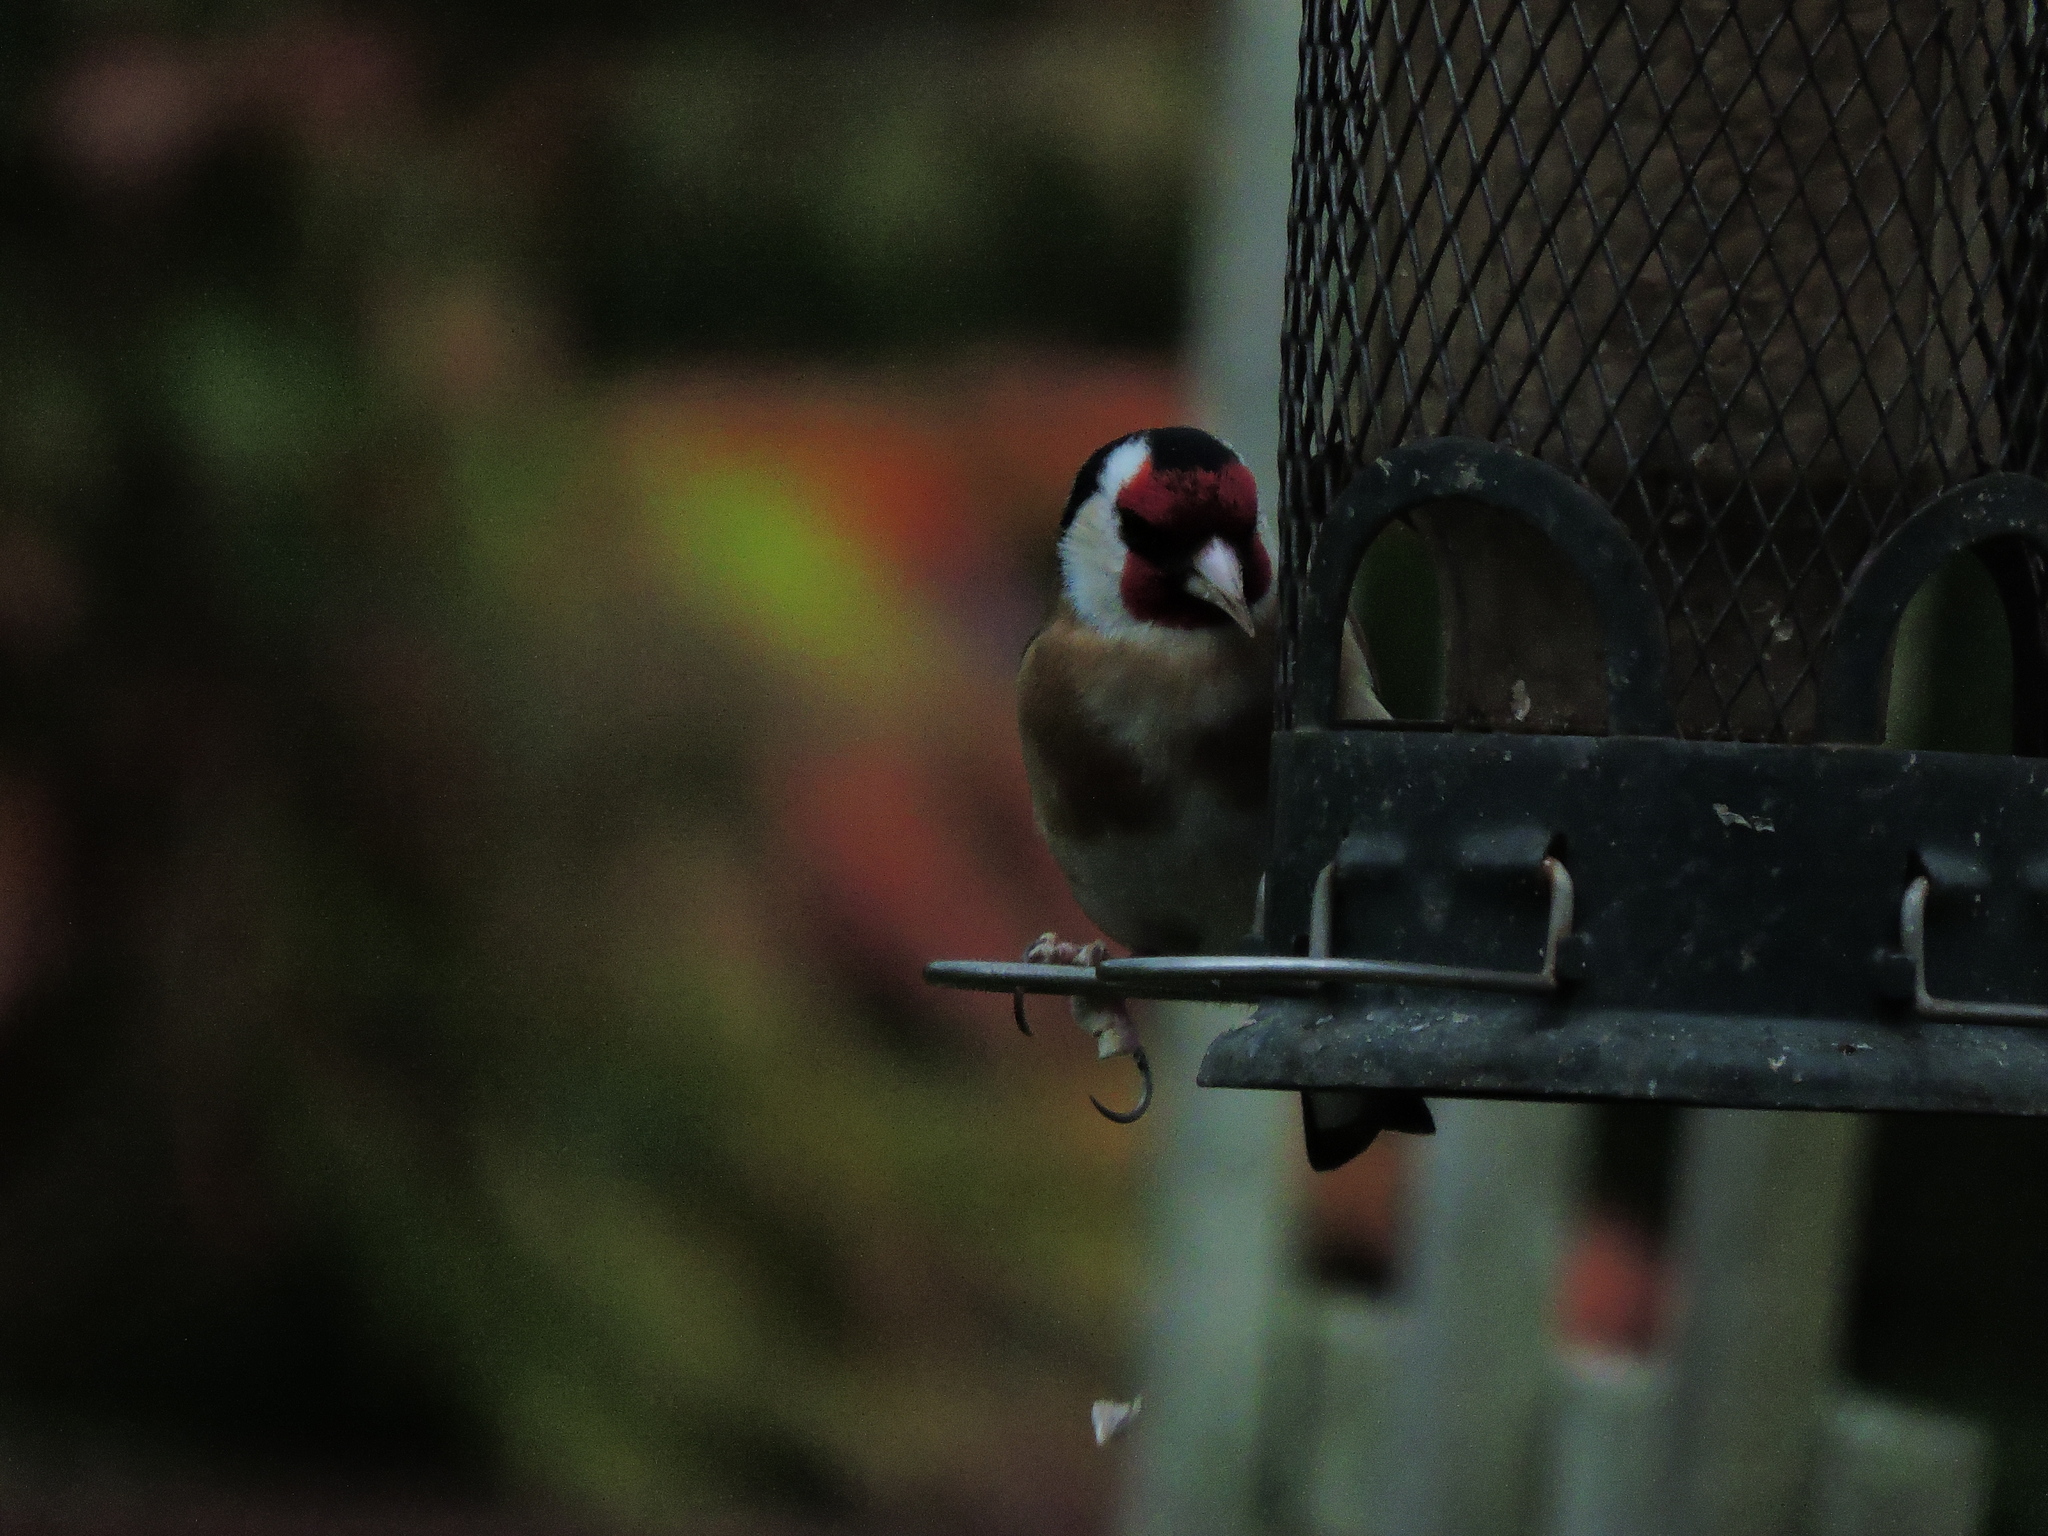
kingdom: Animalia
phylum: Chordata
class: Aves
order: Passeriformes
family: Fringillidae
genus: Carduelis
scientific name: Carduelis carduelis
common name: European goldfinch
